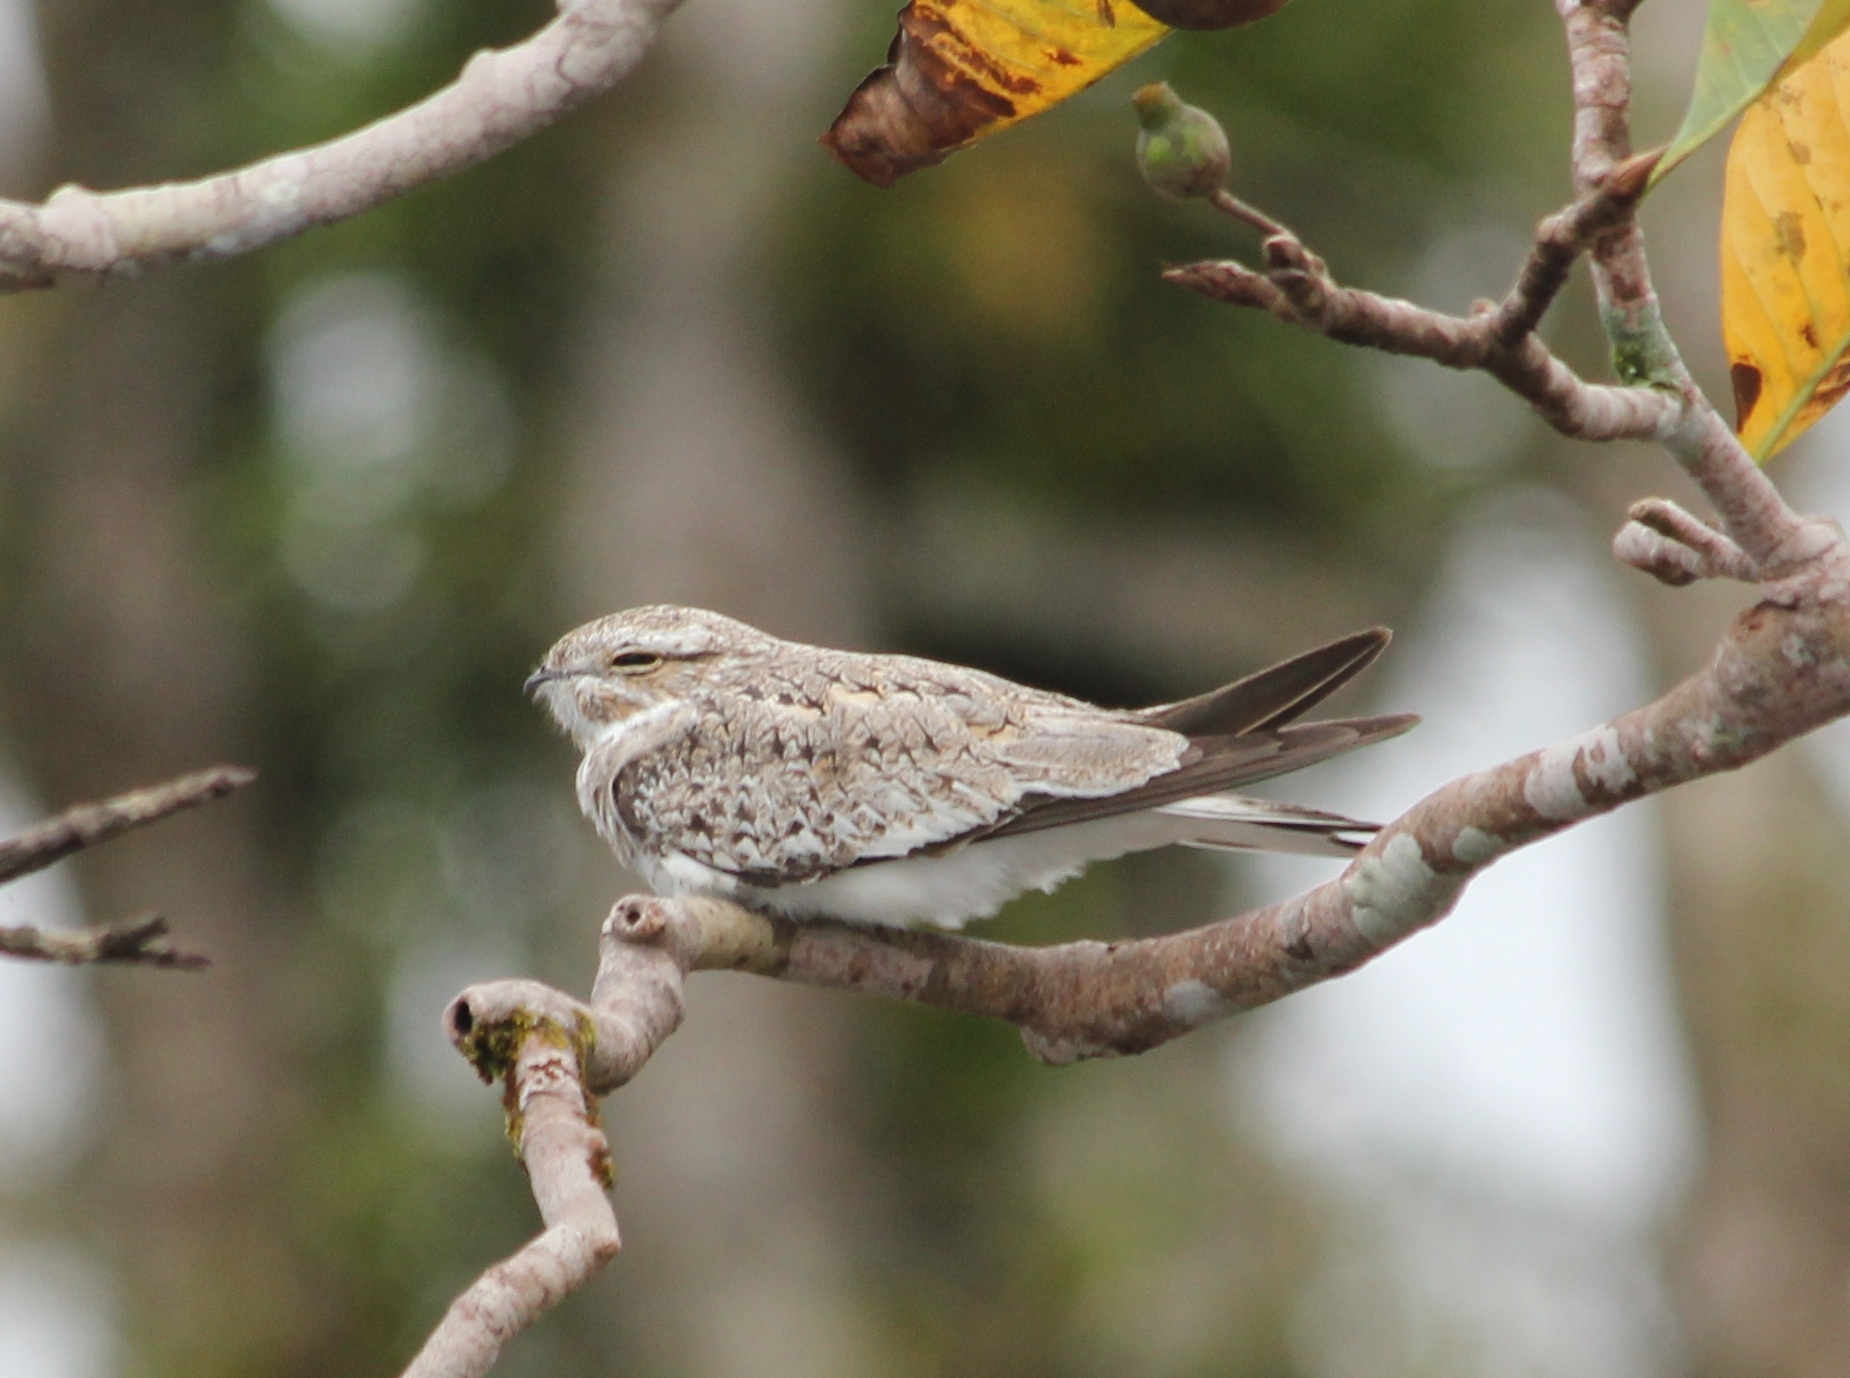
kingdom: Animalia
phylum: Chordata
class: Aves
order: Caprimulgiformes
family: Caprimulgidae
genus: Chordeiles
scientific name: Chordeiles rupestris
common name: Sand-colored nighthawk
